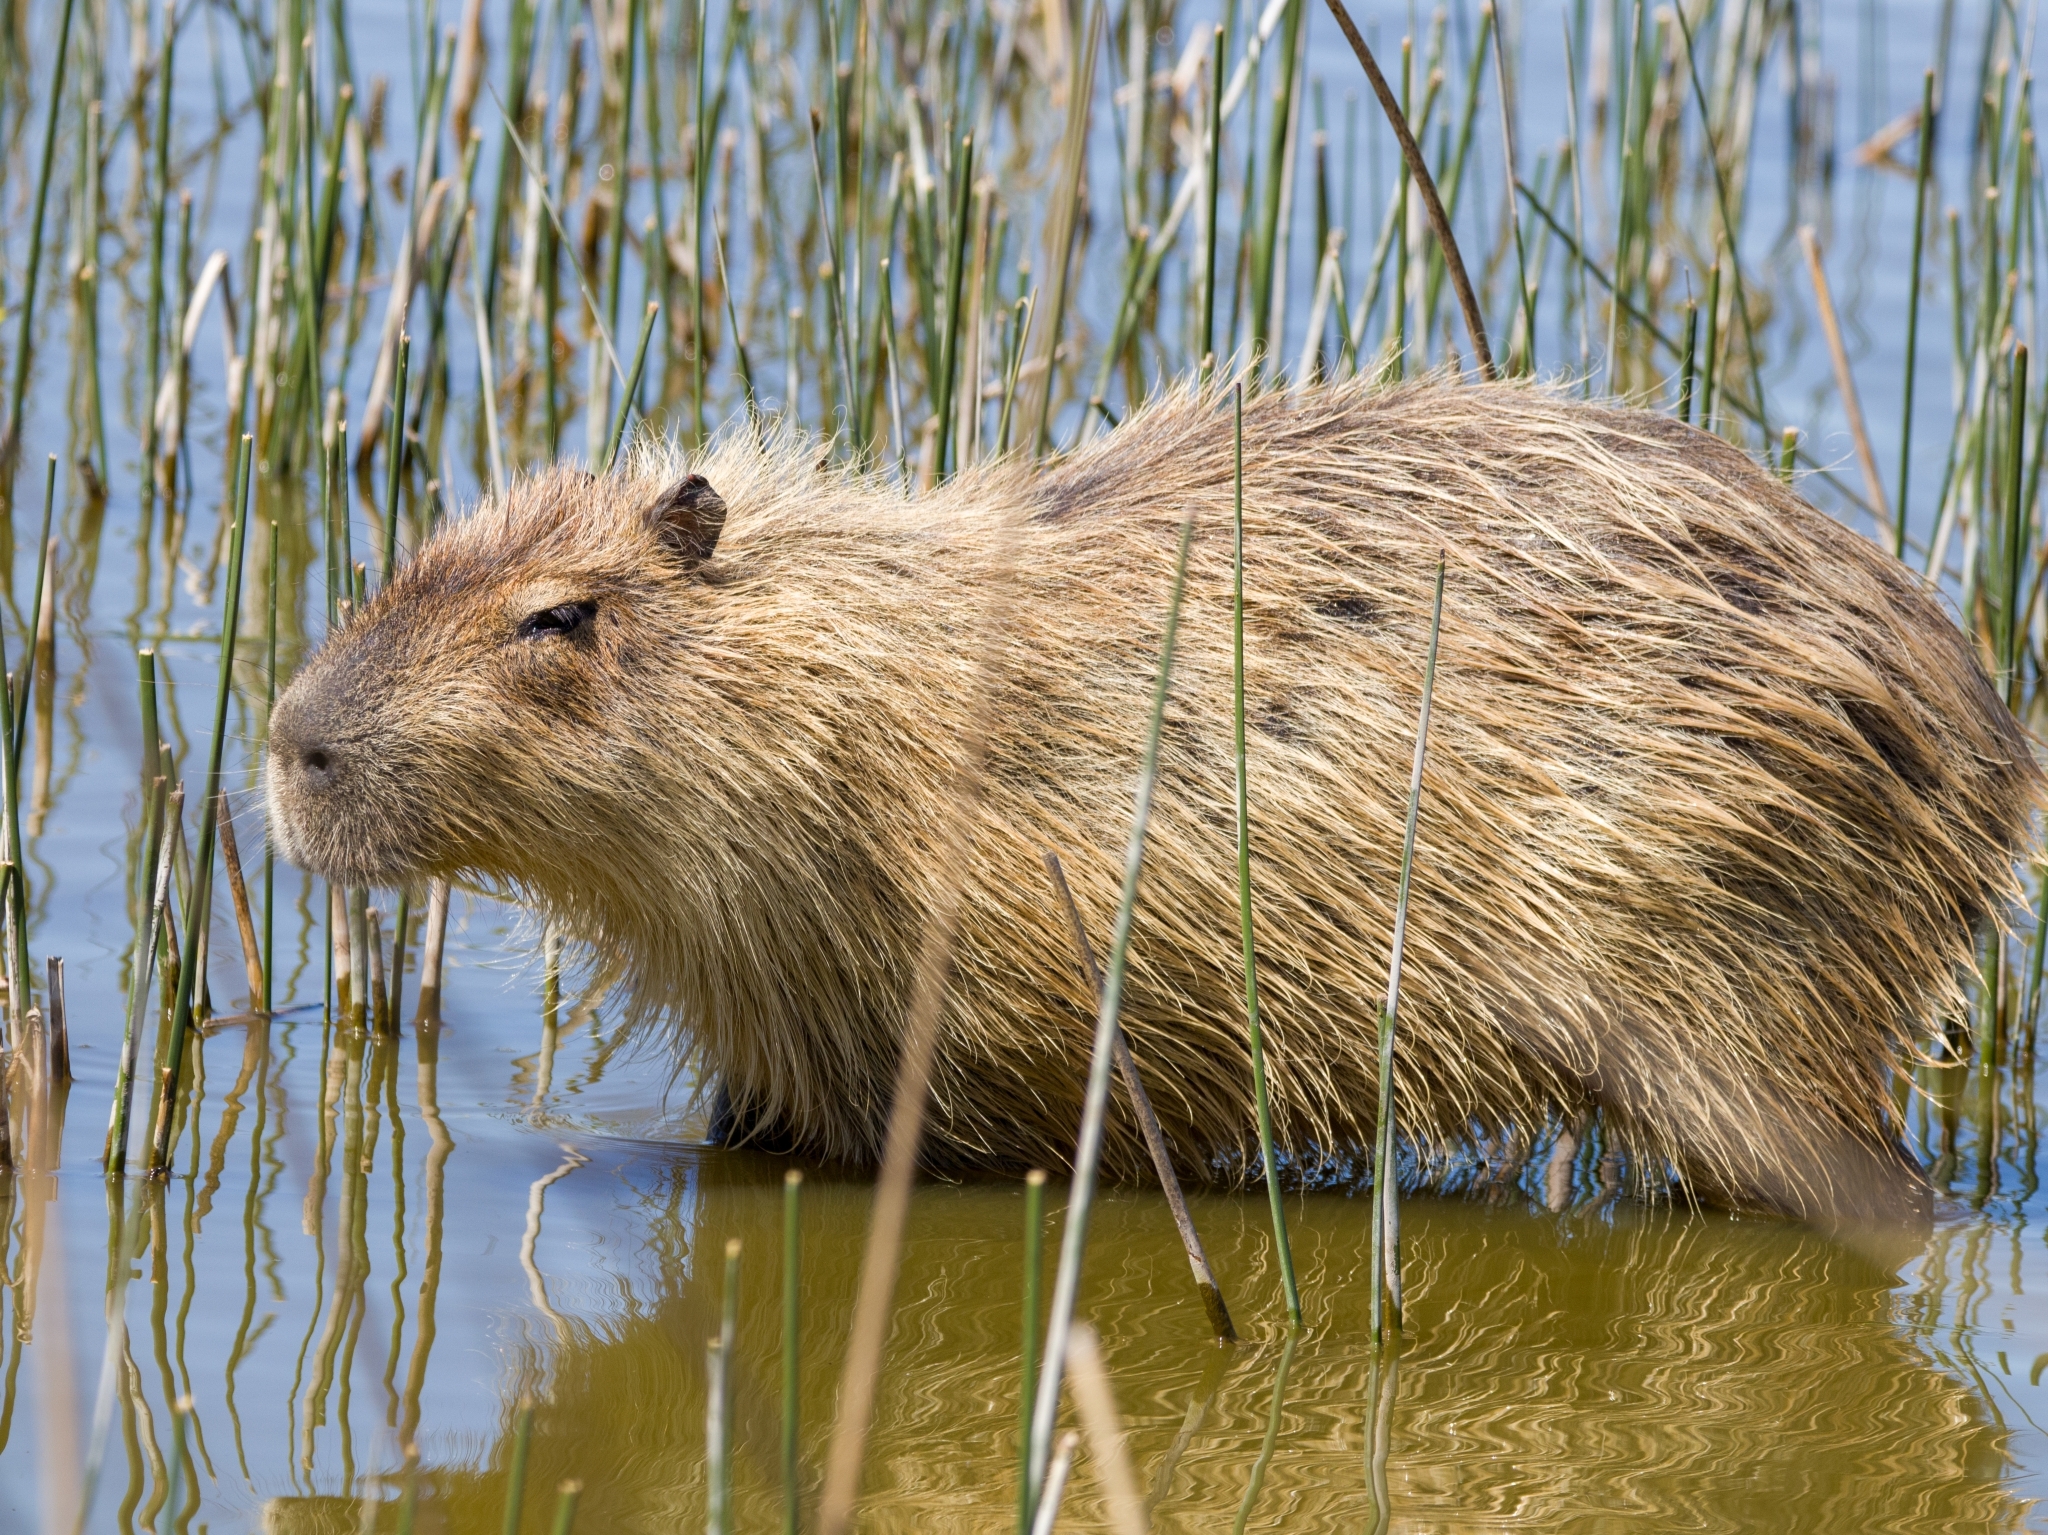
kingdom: Animalia
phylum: Chordata
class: Mammalia
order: Rodentia
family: Caviidae
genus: Hydrochoerus
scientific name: Hydrochoerus hydrochaeris
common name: Capybara
